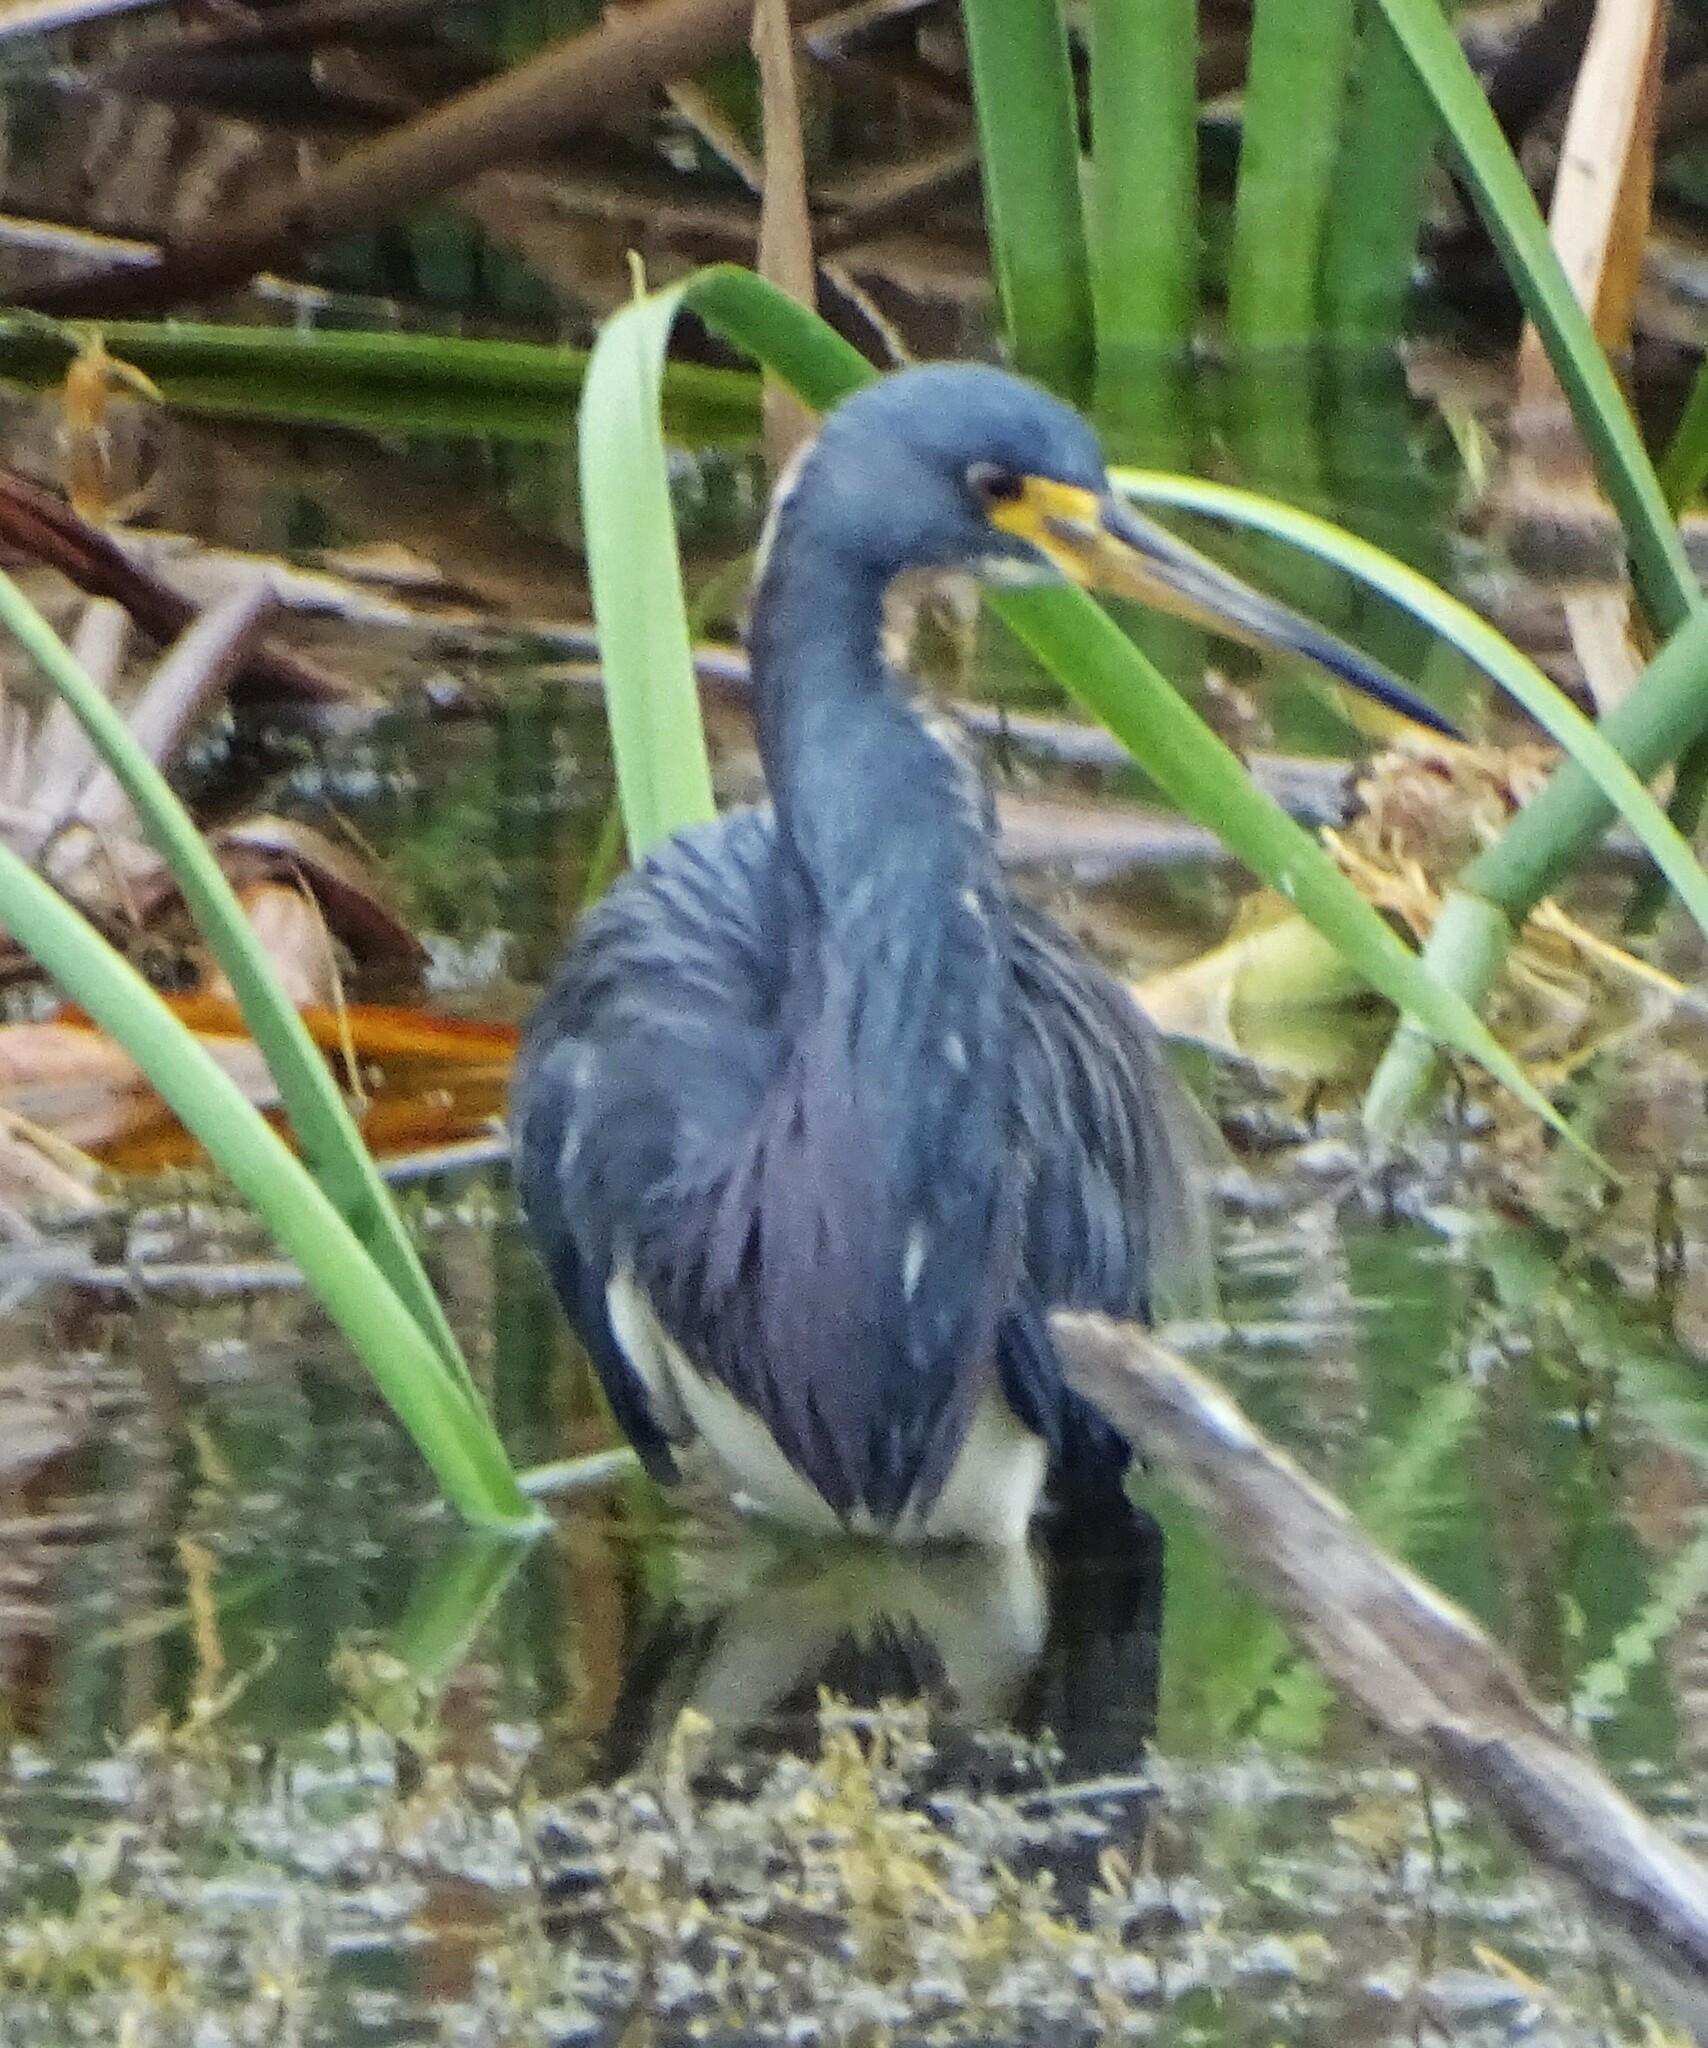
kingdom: Animalia
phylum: Chordata
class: Aves
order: Pelecaniformes
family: Ardeidae
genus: Egretta
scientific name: Egretta tricolor
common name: Tricolored heron
